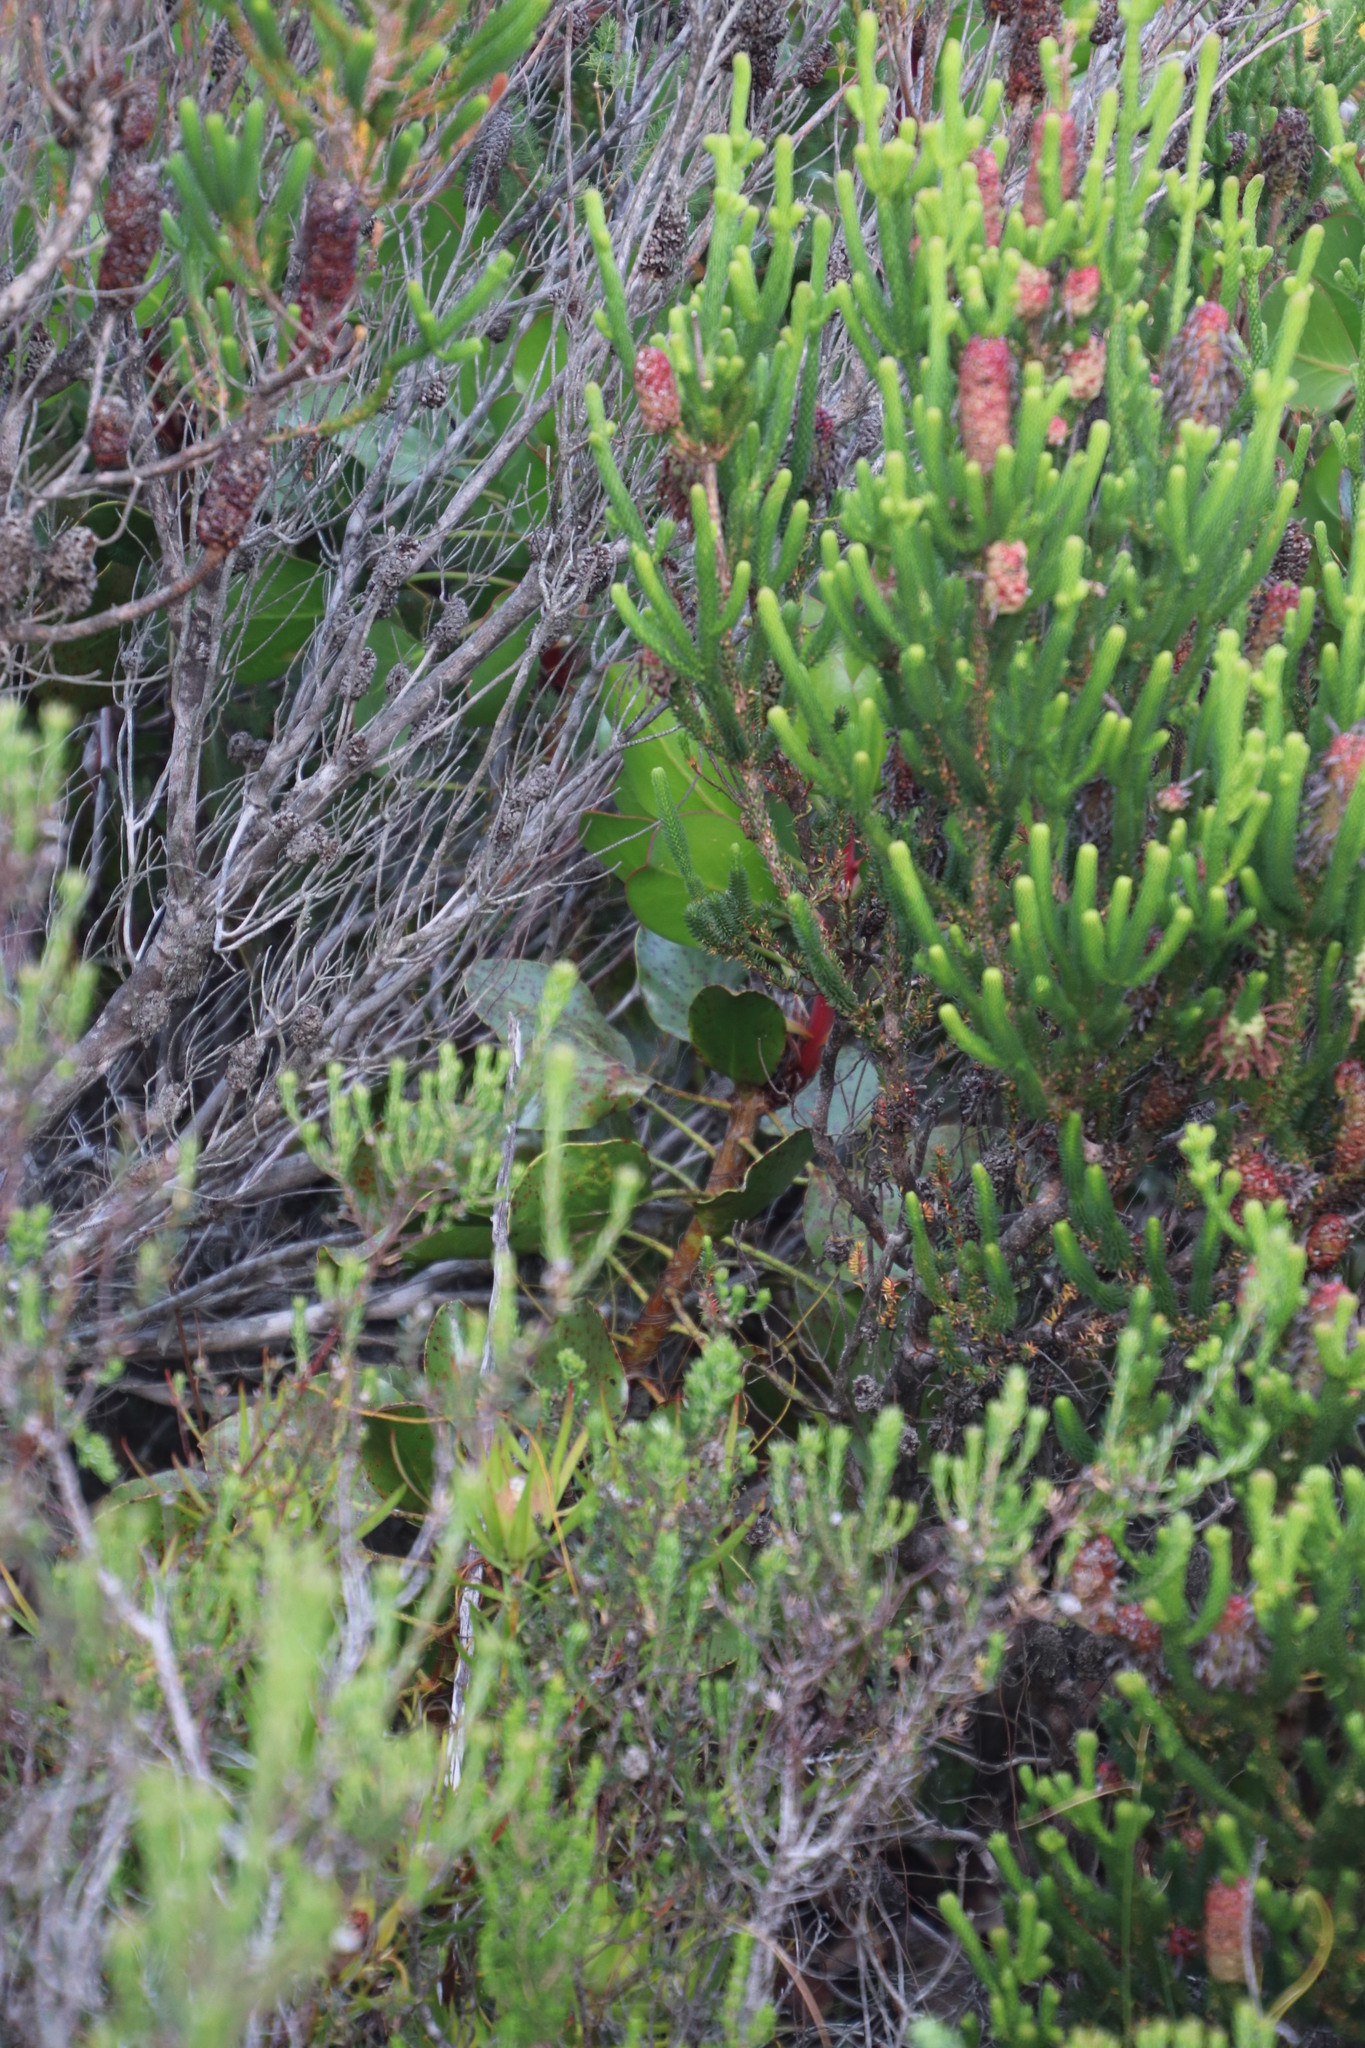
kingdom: Plantae
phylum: Tracheophyta
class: Magnoliopsida
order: Proteales
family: Proteaceae
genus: Protea
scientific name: Protea cynaroides
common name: King protea
